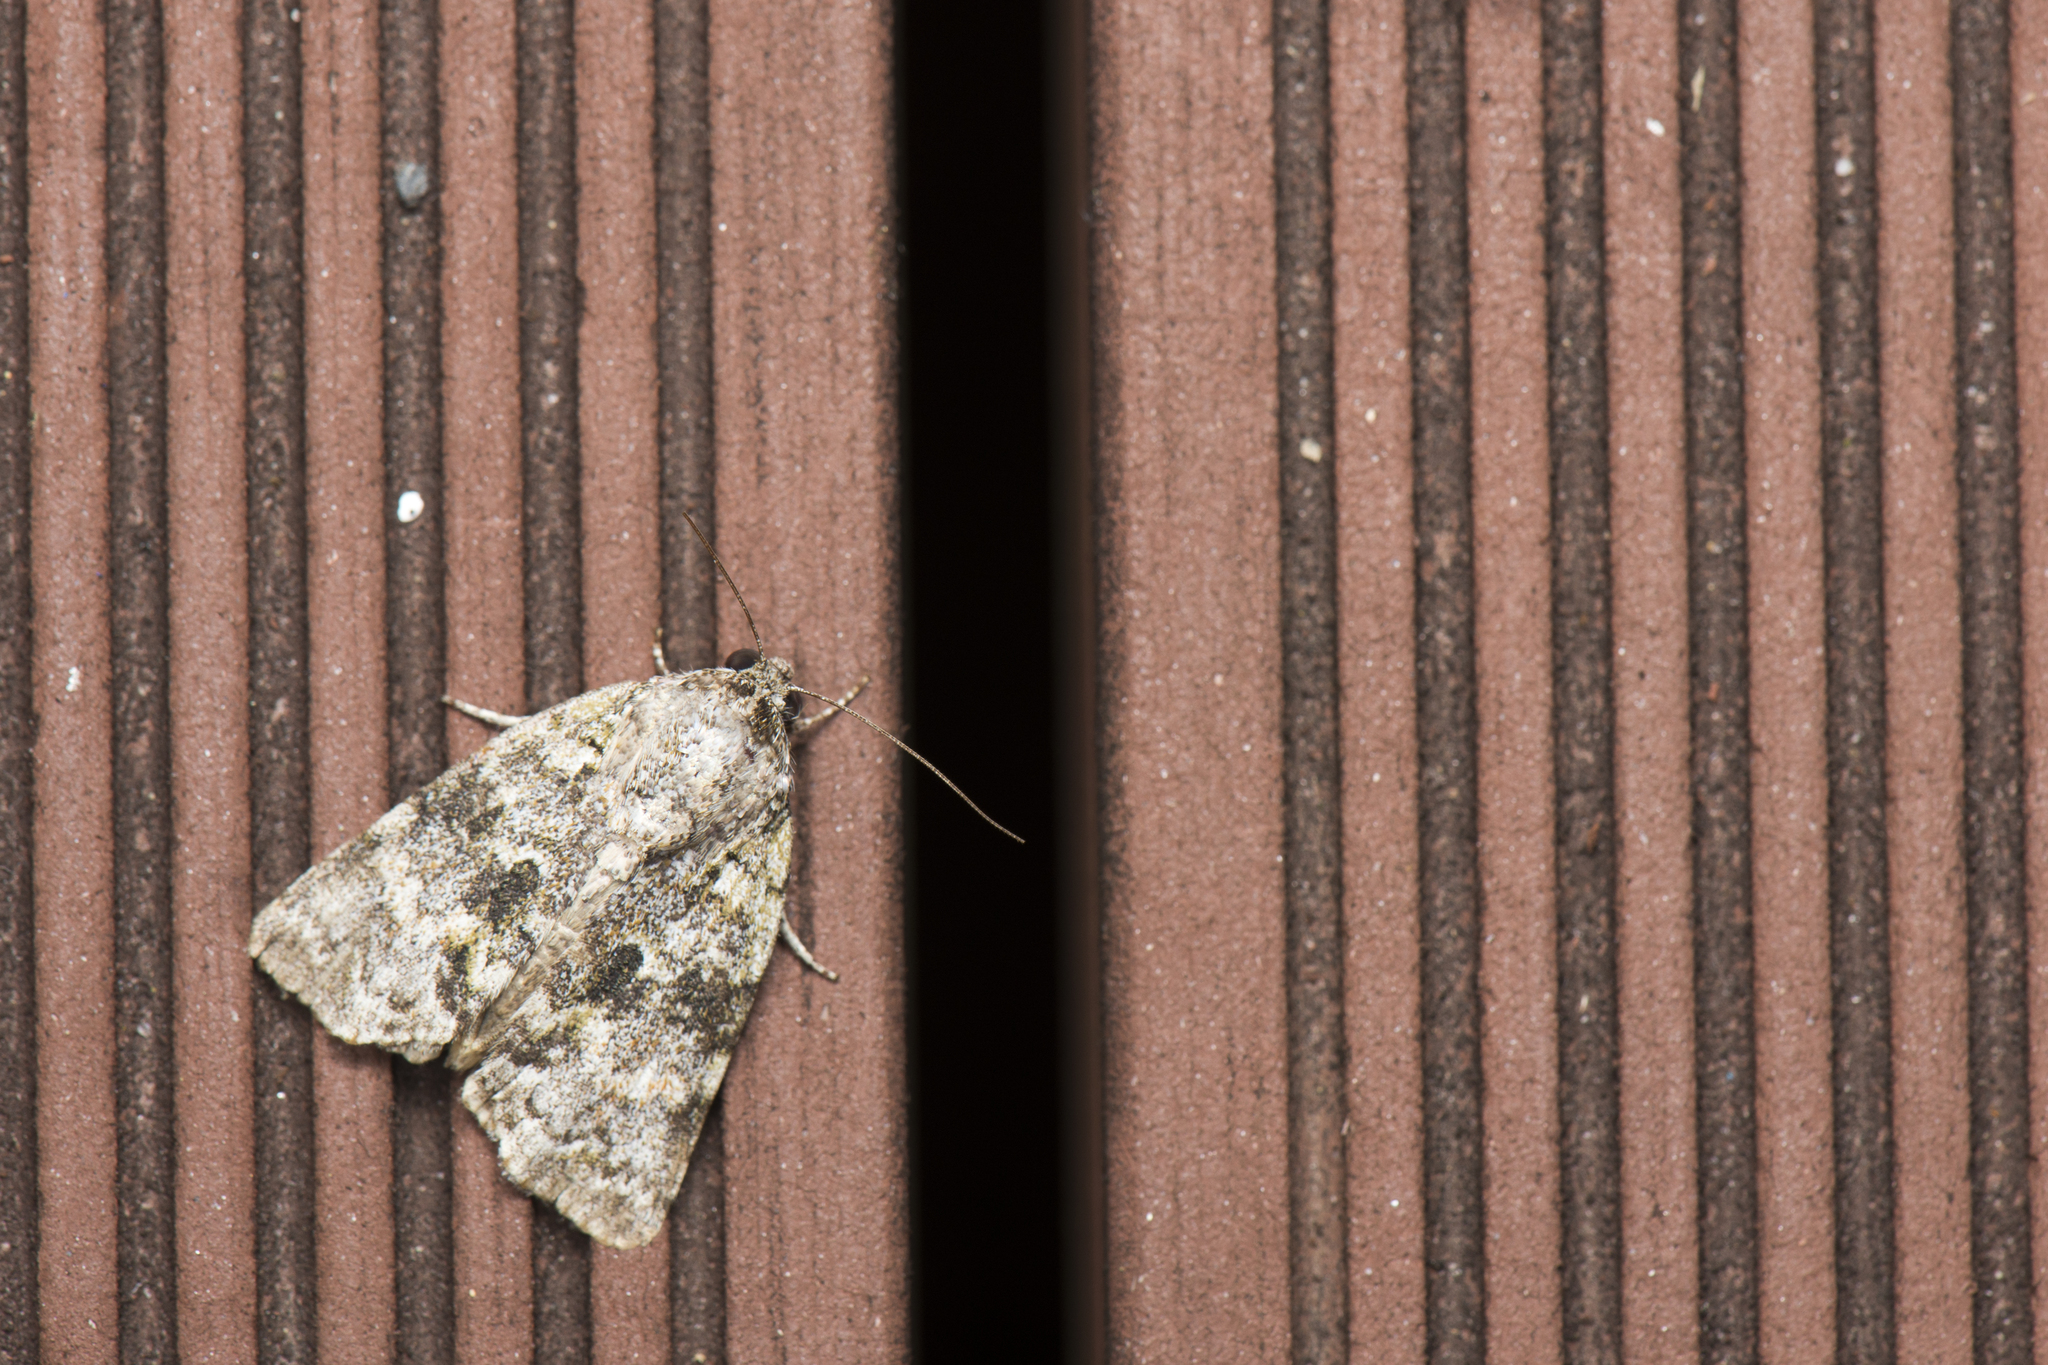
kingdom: Animalia
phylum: Arthropoda
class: Insecta
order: Lepidoptera
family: Nolidae
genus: Blenina
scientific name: Blenina quinaria
